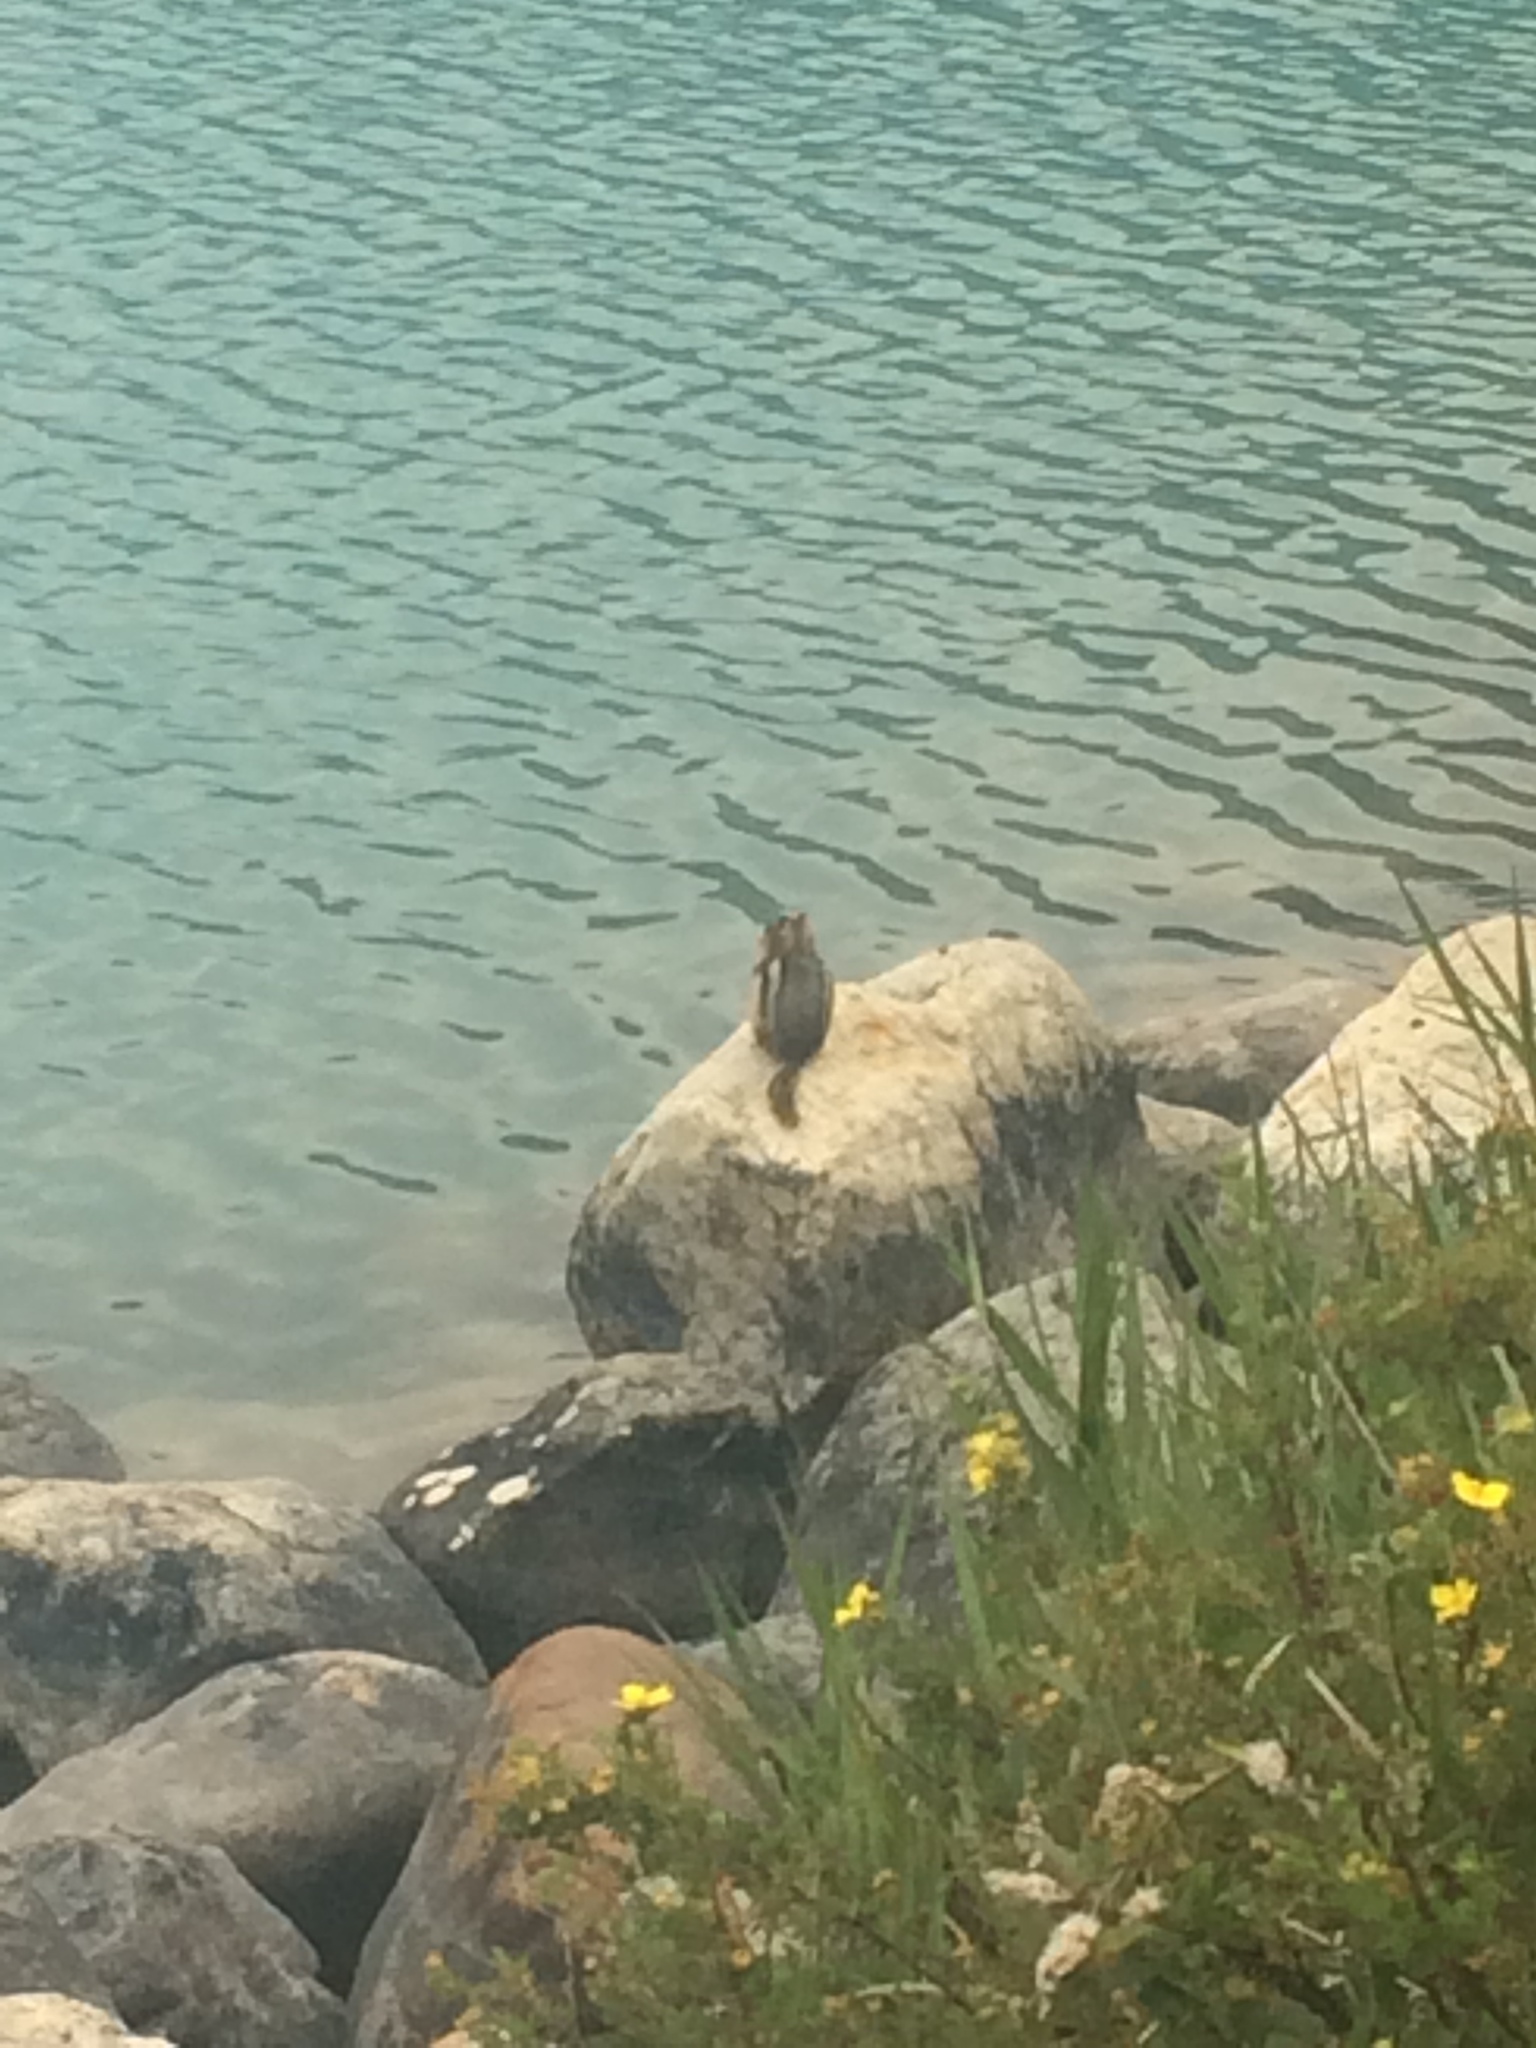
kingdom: Animalia
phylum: Chordata
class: Mammalia
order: Rodentia
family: Sciuridae
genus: Callospermophilus
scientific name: Callospermophilus lateralis
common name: Golden-mantled ground squirrel
